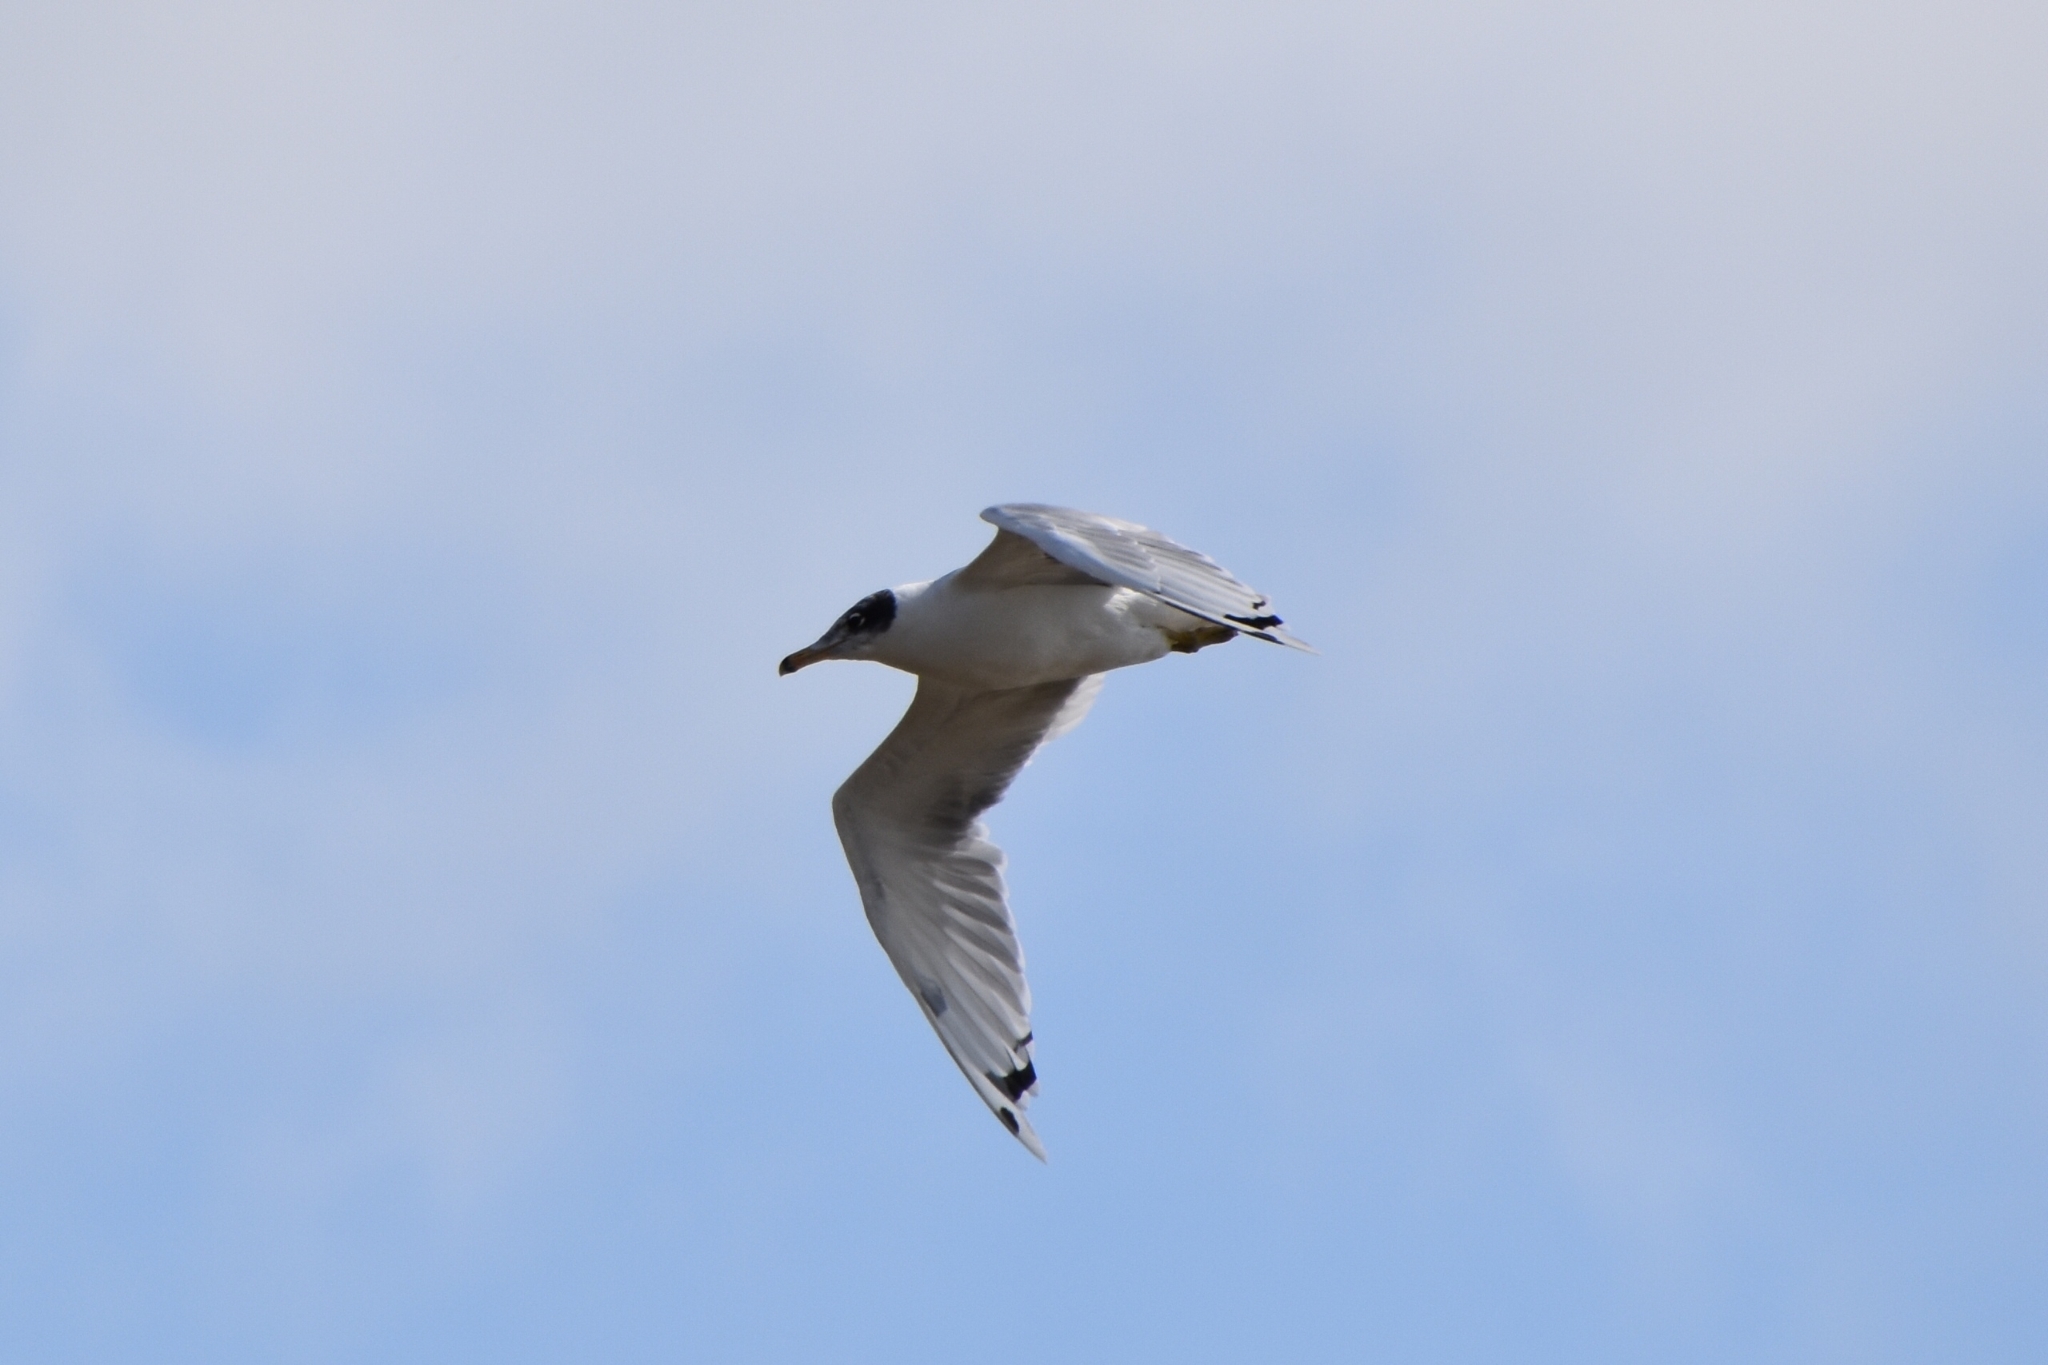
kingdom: Animalia
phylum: Chordata
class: Aves
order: Charadriiformes
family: Laridae
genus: Ichthyaetus
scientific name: Ichthyaetus ichthyaetus
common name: Pallas's gull
